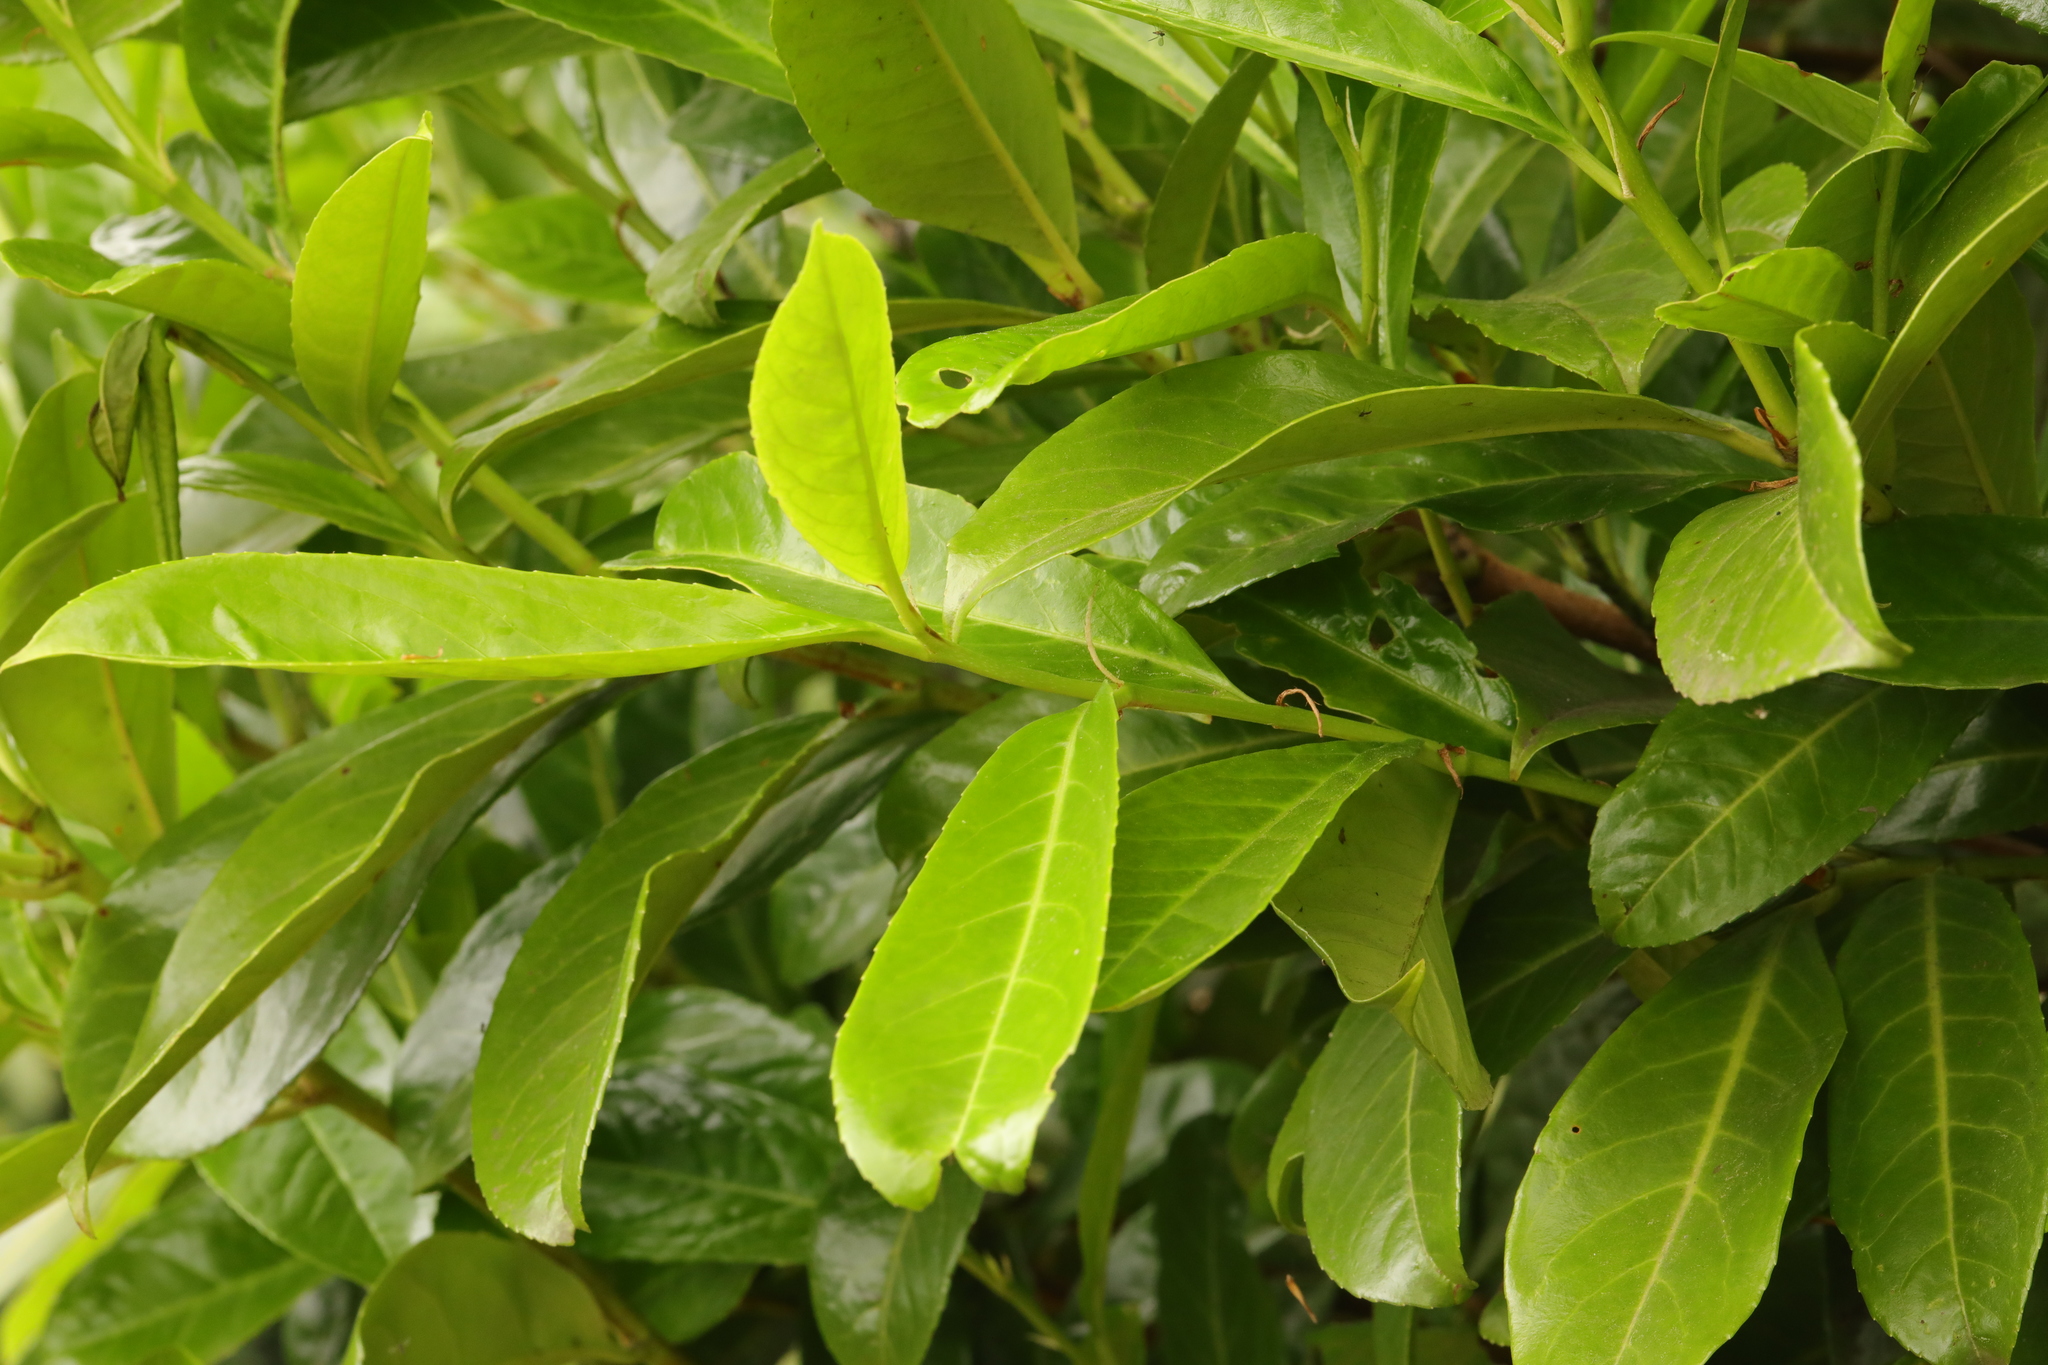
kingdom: Plantae
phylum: Tracheophyta
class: Magnoliopsida
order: Rosales
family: Rosaceae
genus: Prunus
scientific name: Prunus laurocerasus
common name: Cherry laurel
